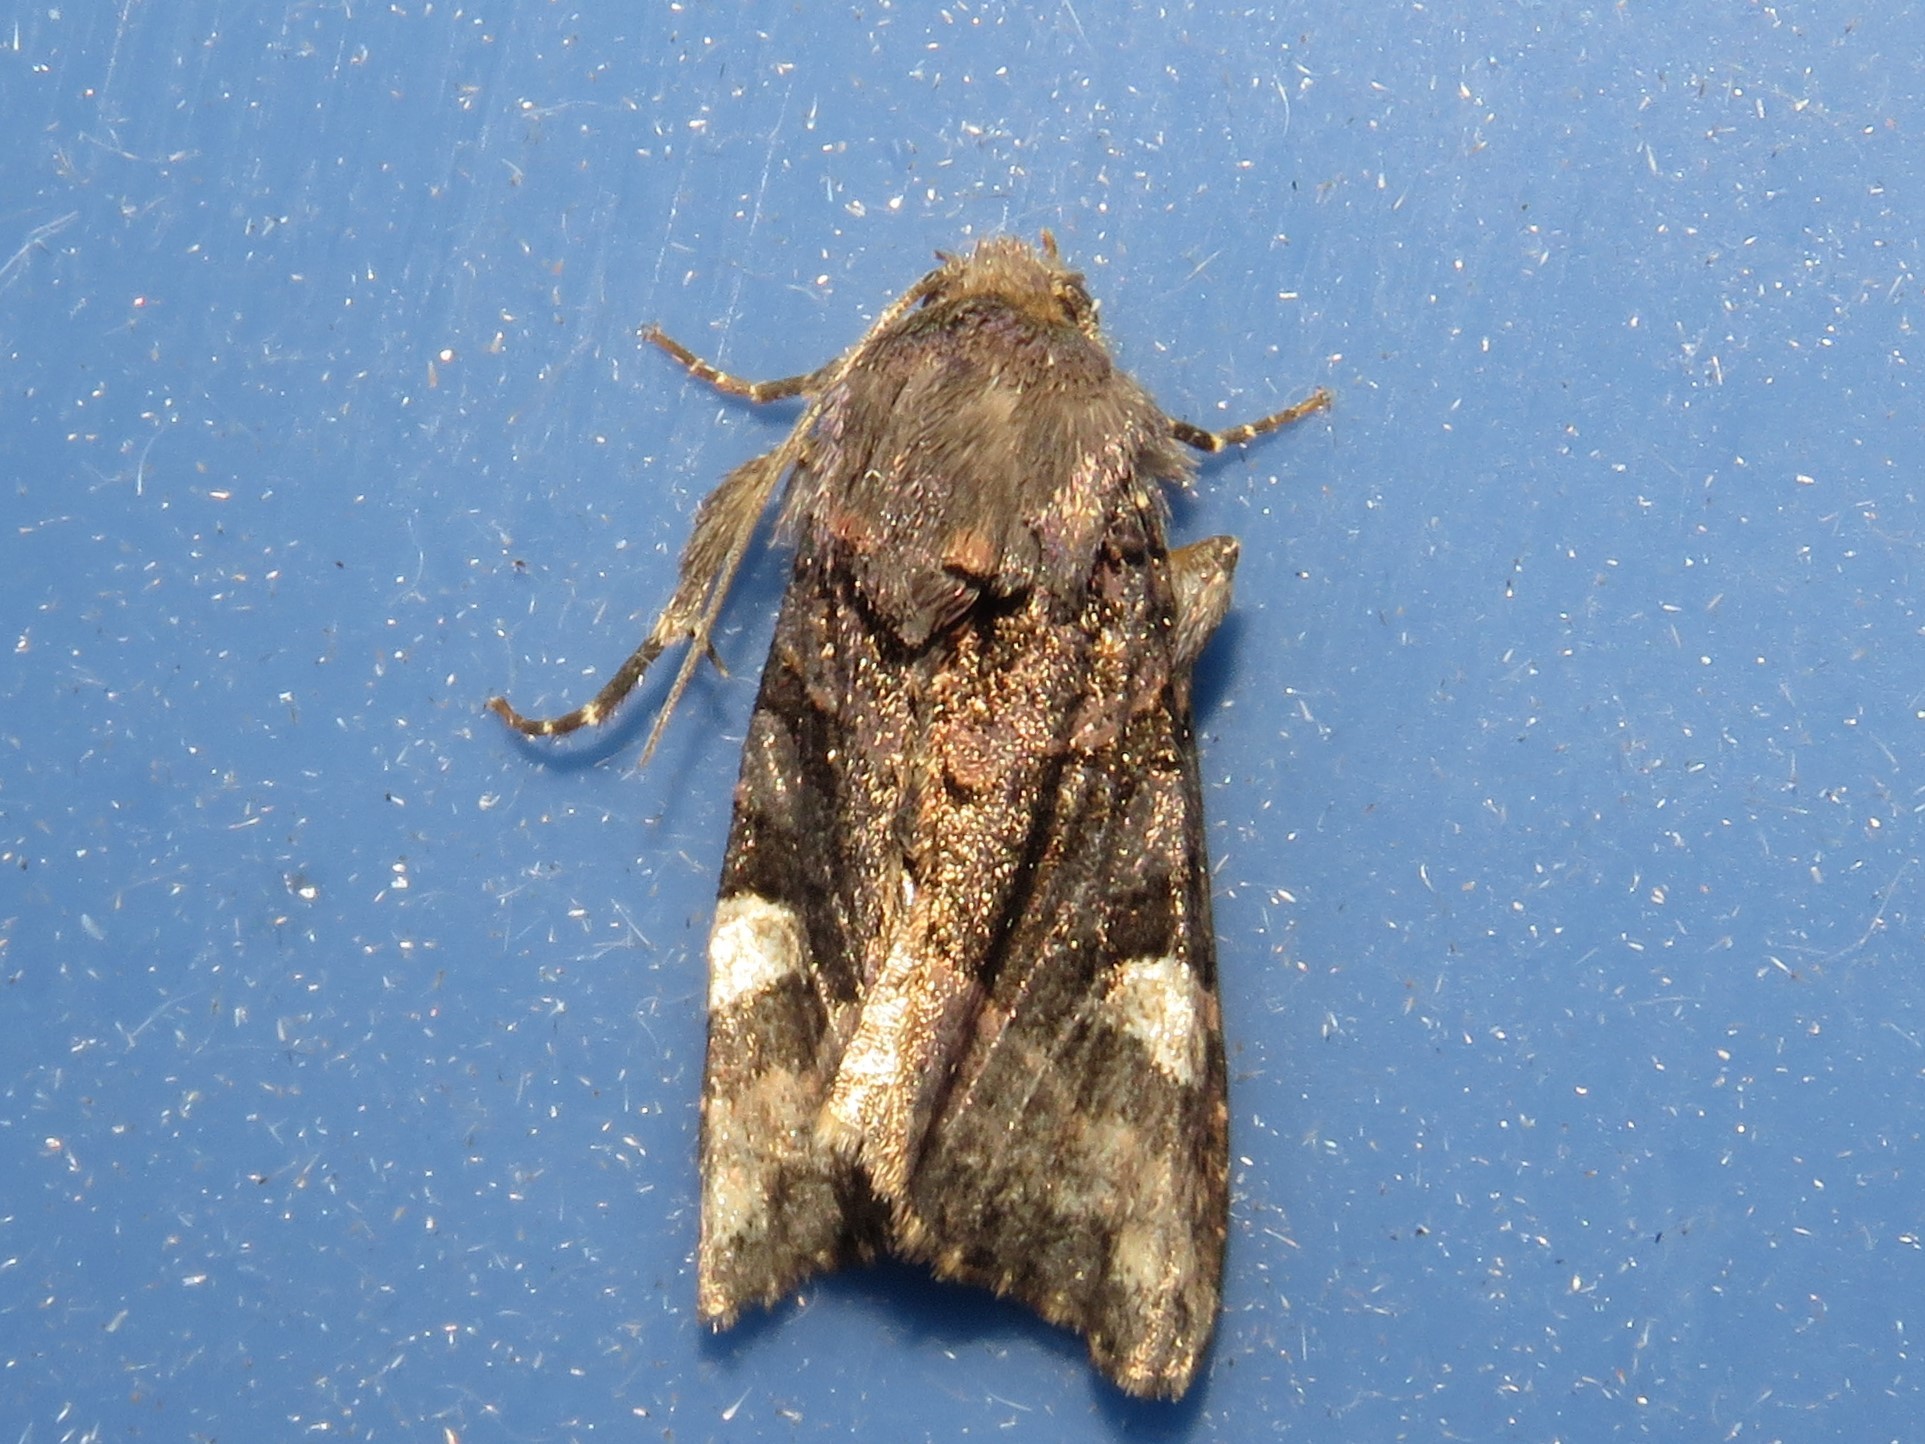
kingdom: Animalia
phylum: Arthropoda
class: Insecta
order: Lepidoptera
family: Noctuidae
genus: Euplexia
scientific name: Euplexia benesimilis
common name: American angle shades
